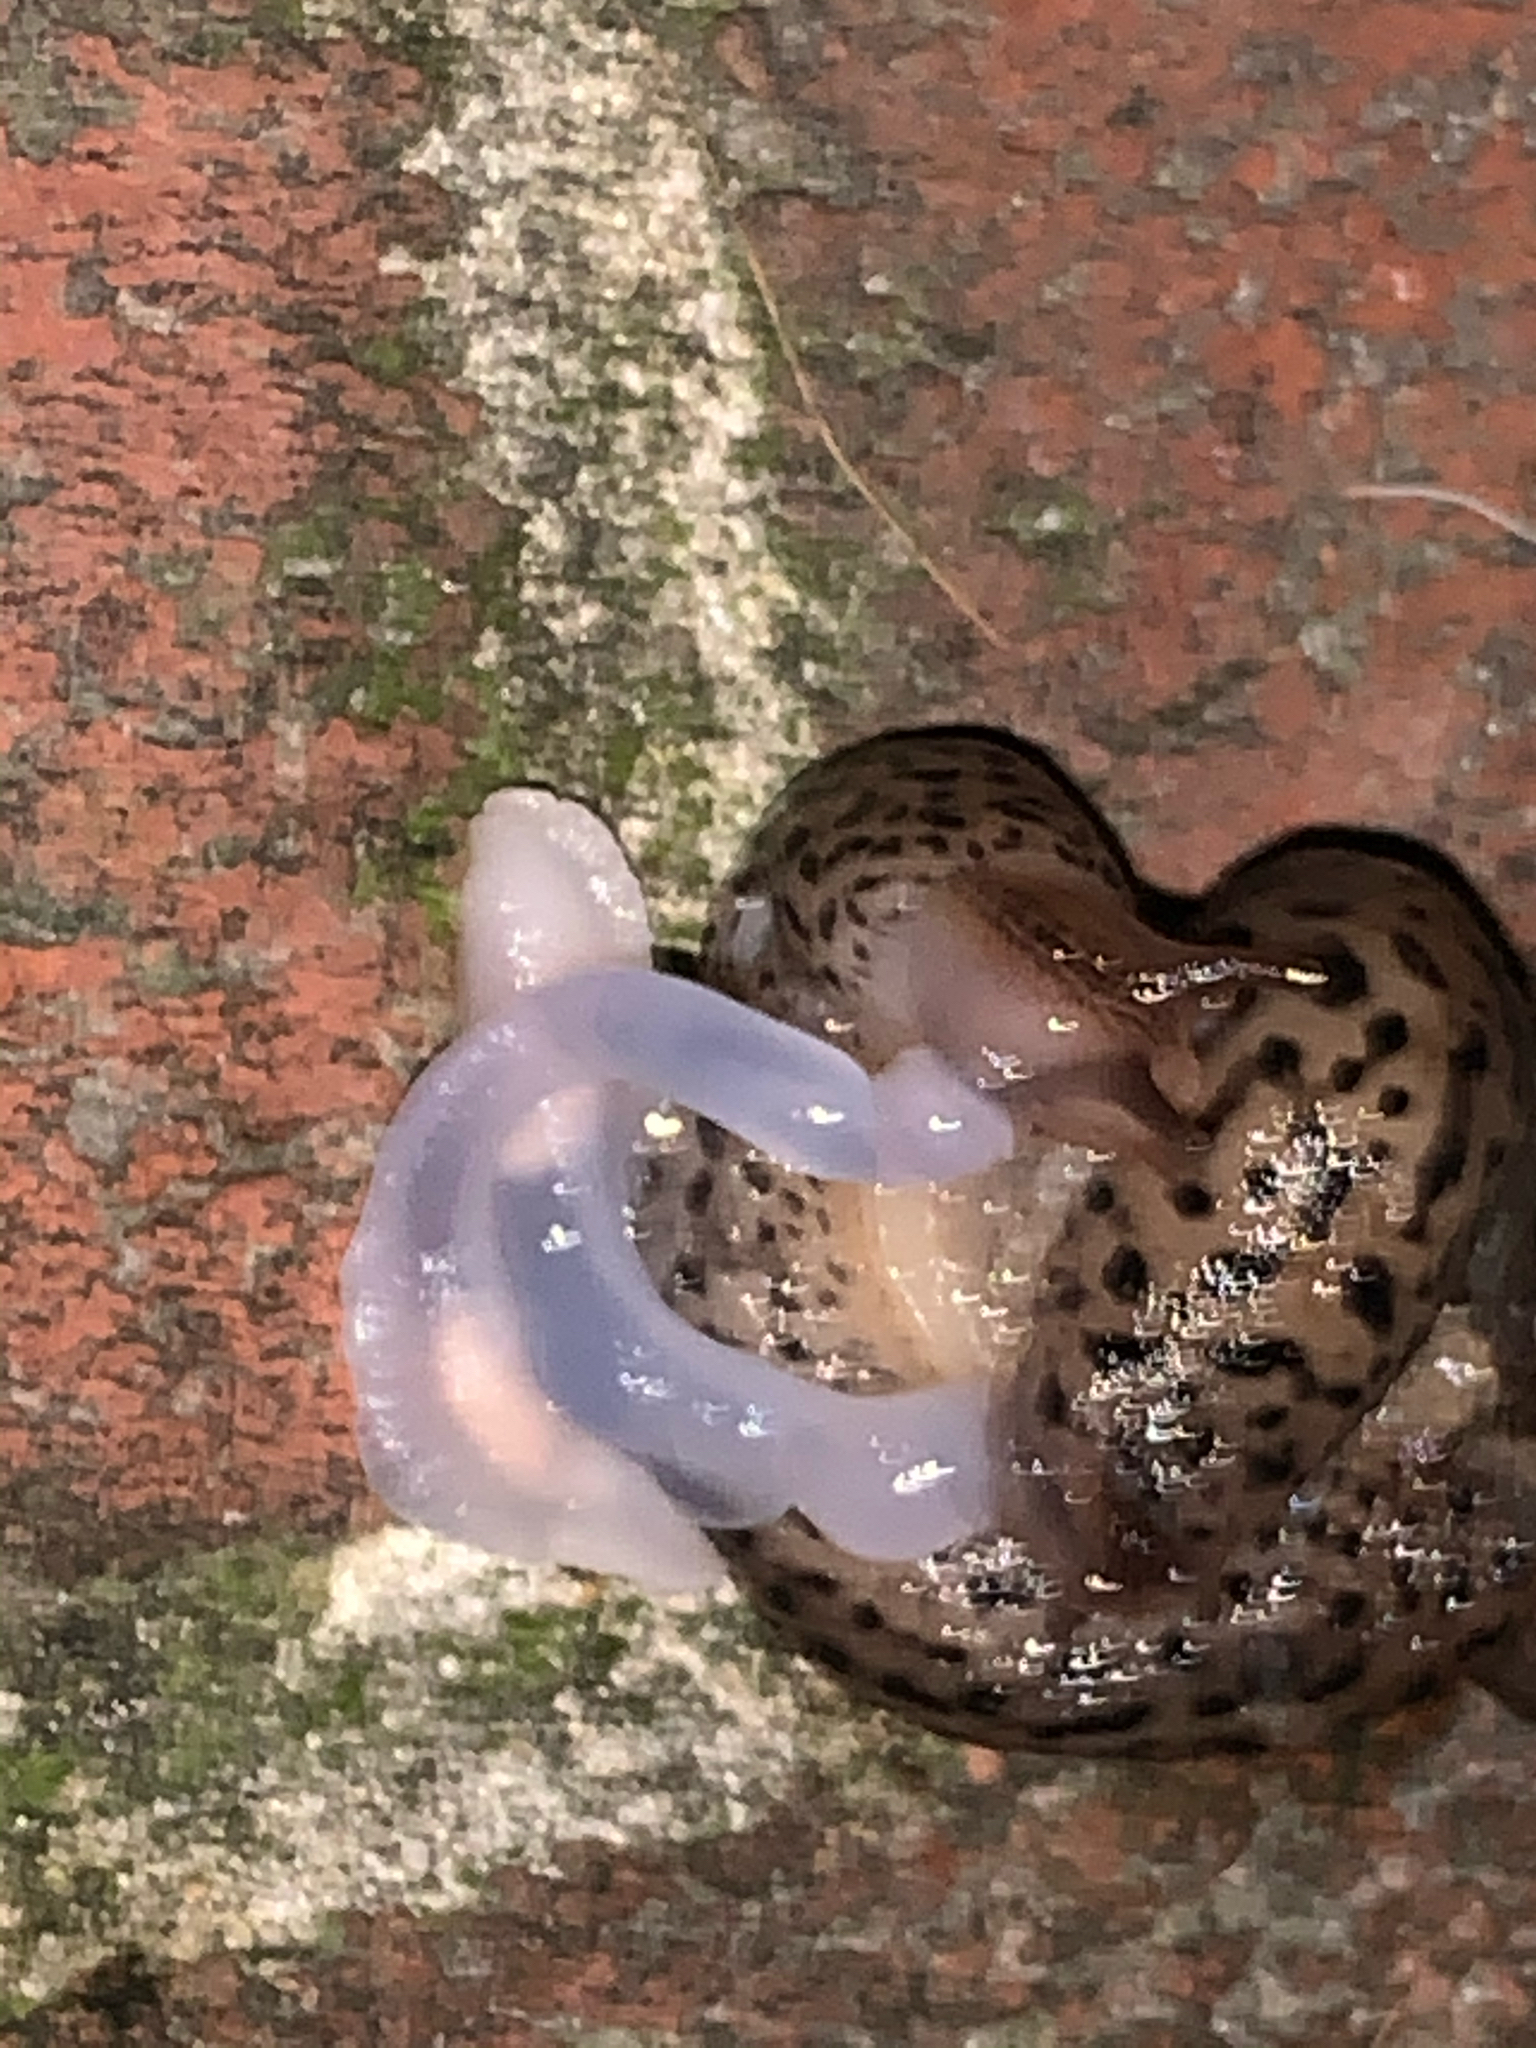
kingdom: Animalia
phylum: Mollusca
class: Gastropoda
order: Stylommatophora
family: Limacidae
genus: Limax
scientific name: Limax maximus
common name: Great grey slug
